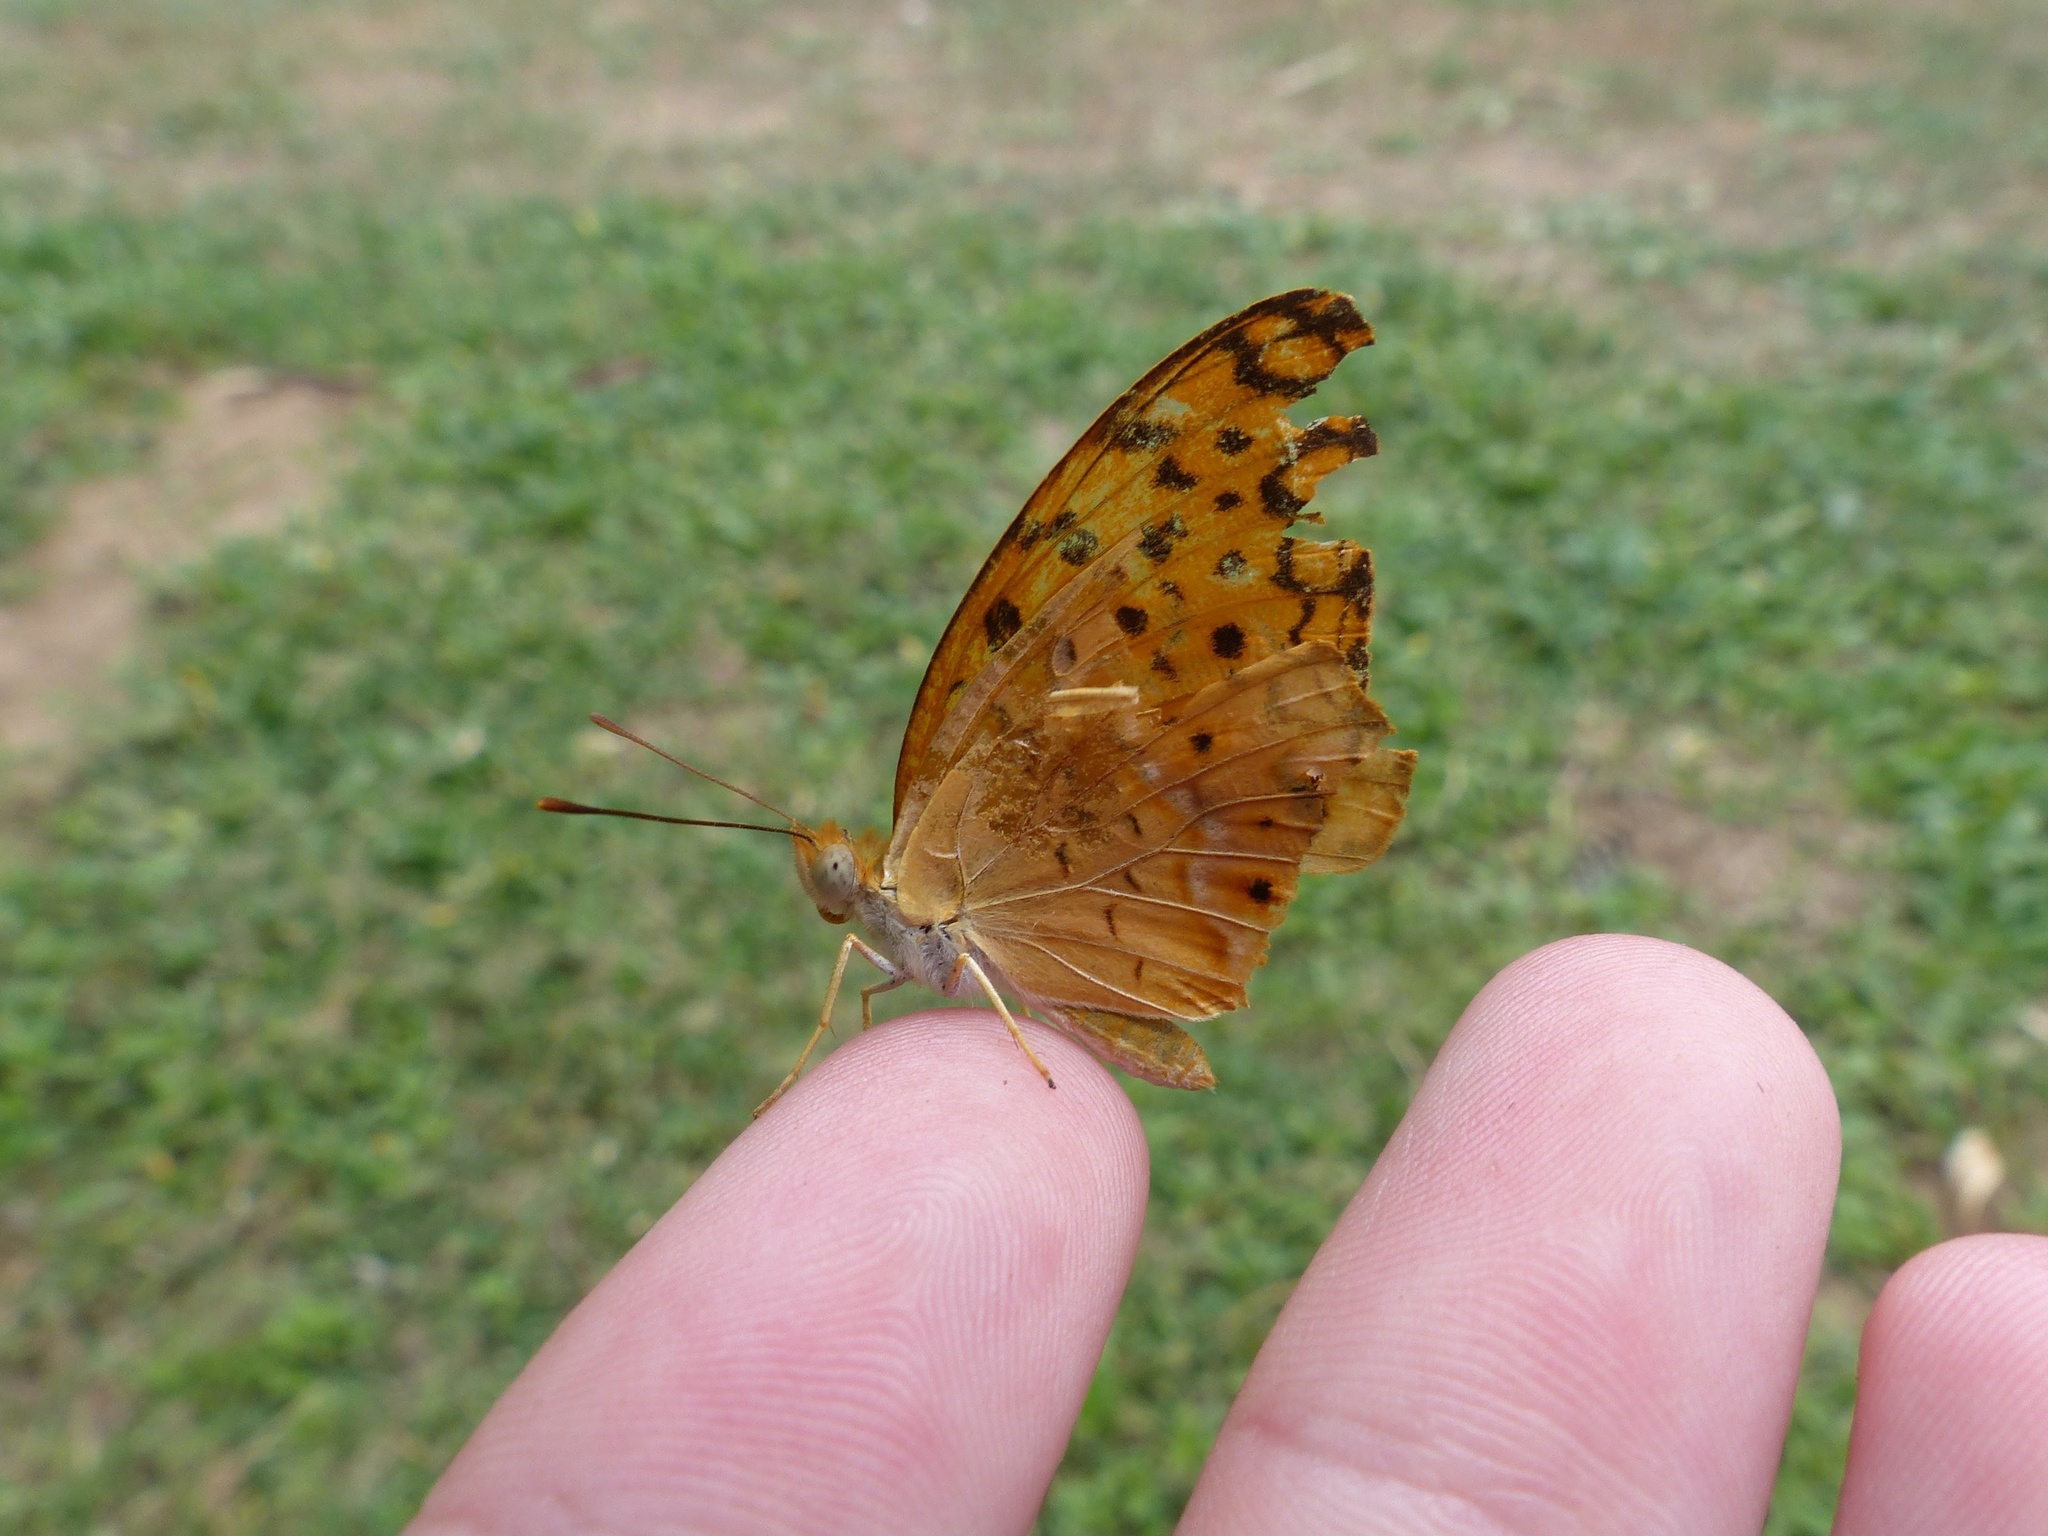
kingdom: Animalia
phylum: Arthropoda
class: Insecta
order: Lepidoptera
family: Nymphalidae
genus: Phalanta
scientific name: Phalanta phalantha
